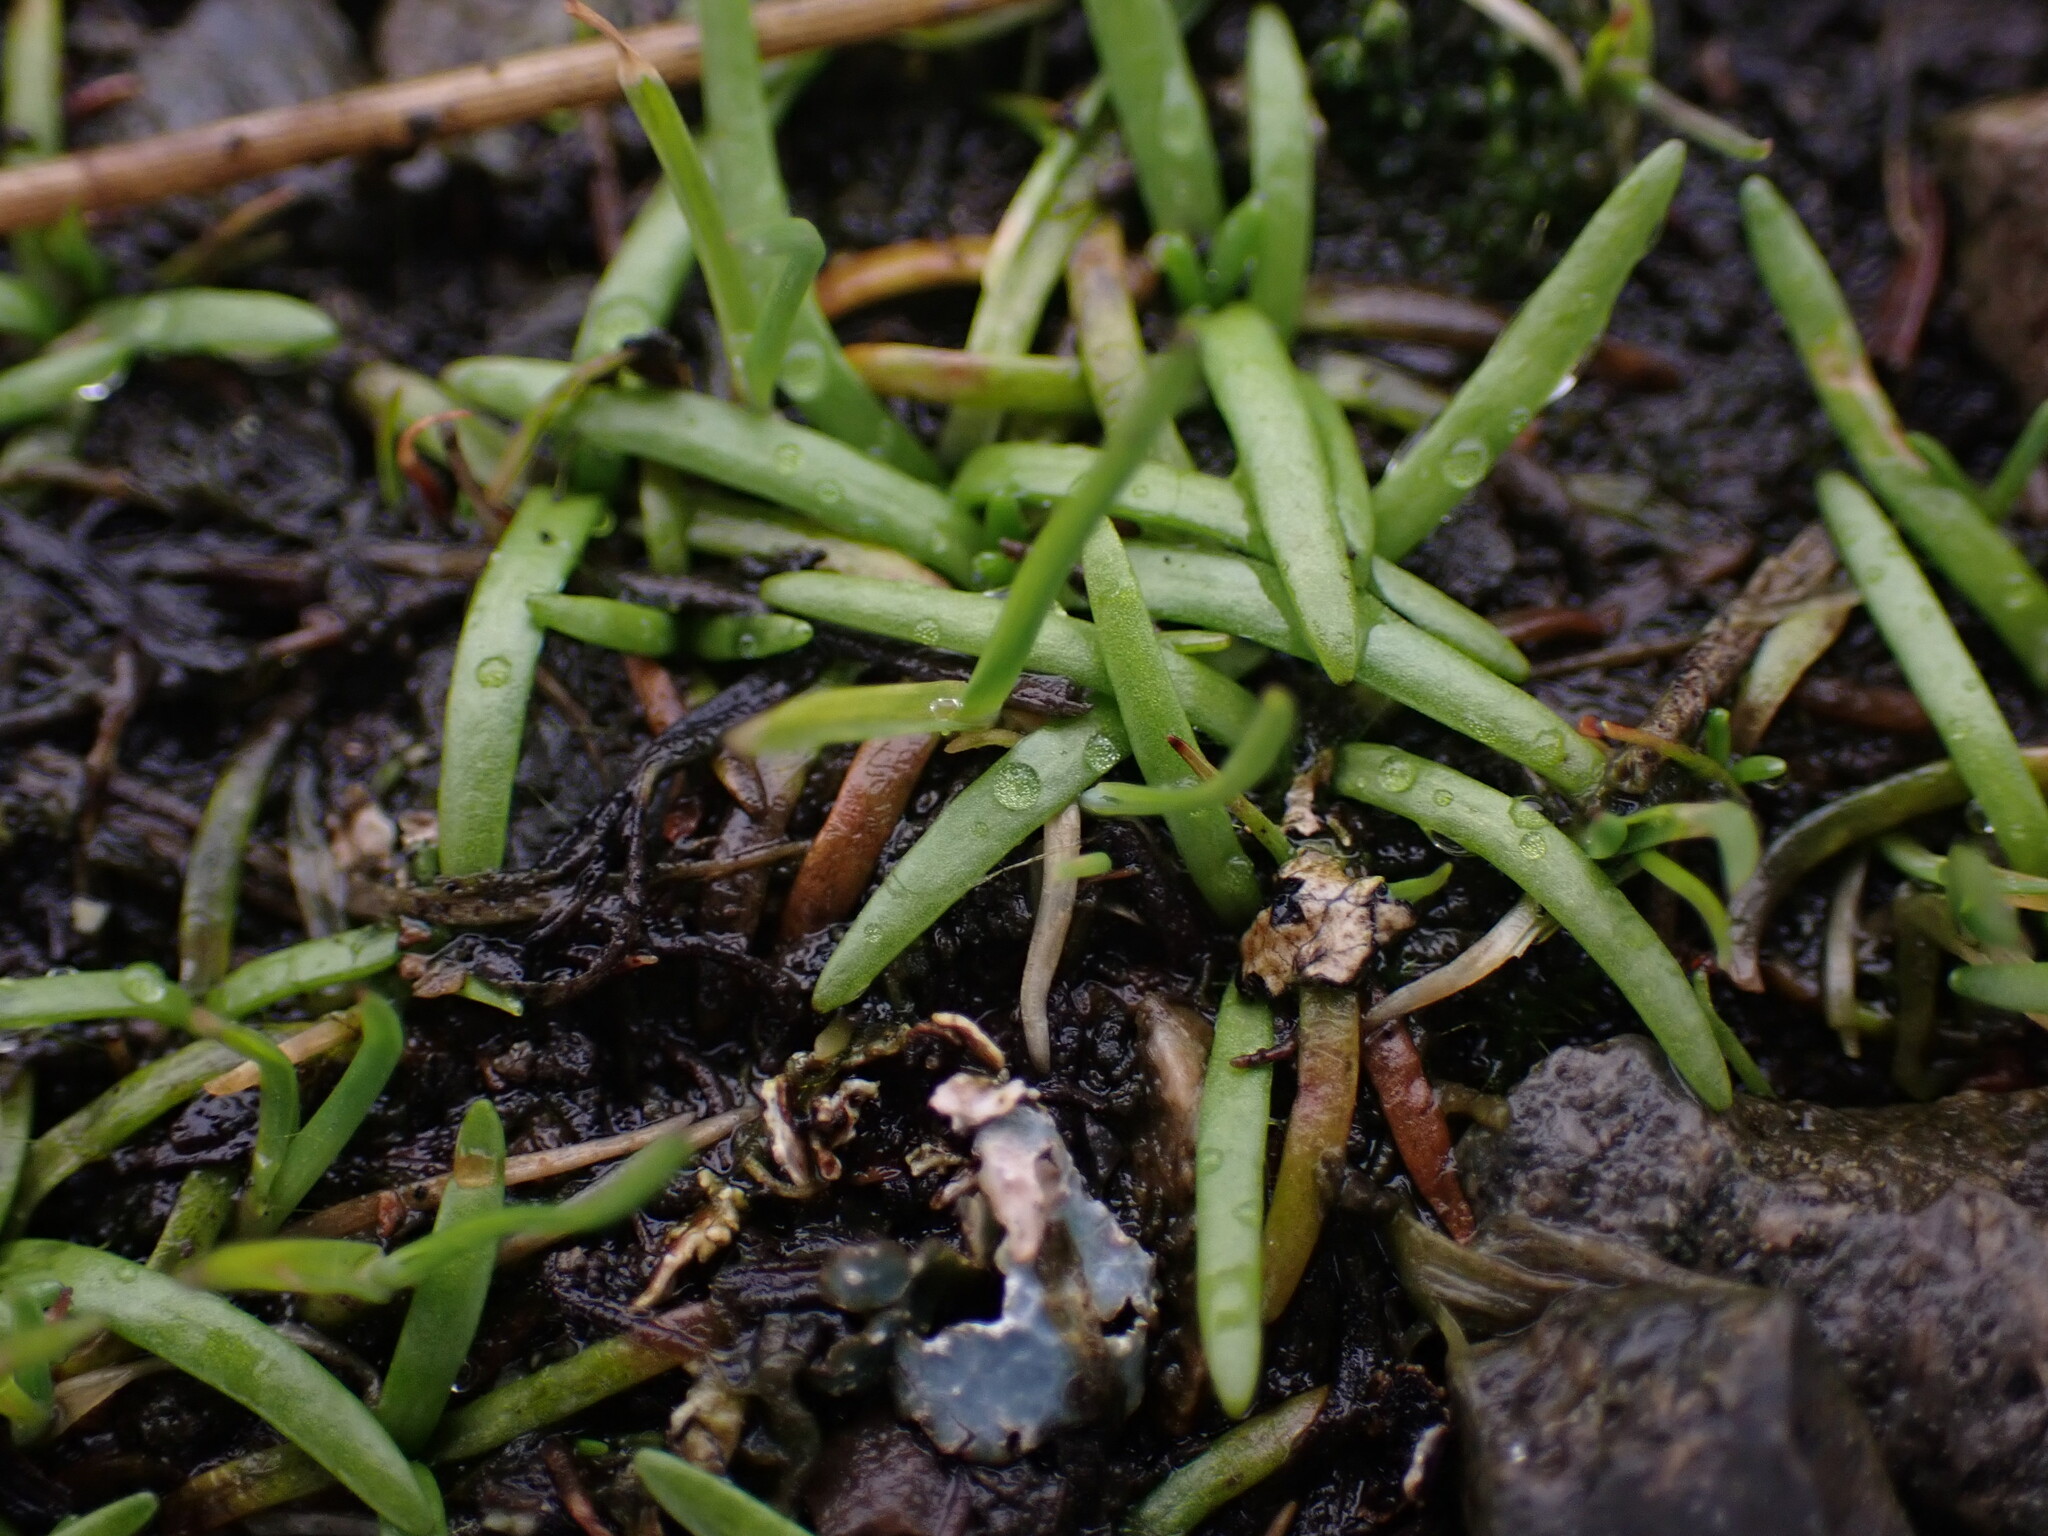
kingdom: Plantae
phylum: Tracheophyta
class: Magnoliopsida
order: Boraginales
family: Boraginaceae
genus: Plagiobothrys
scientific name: Plagiobothrys scouleri
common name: White forget-me-not
